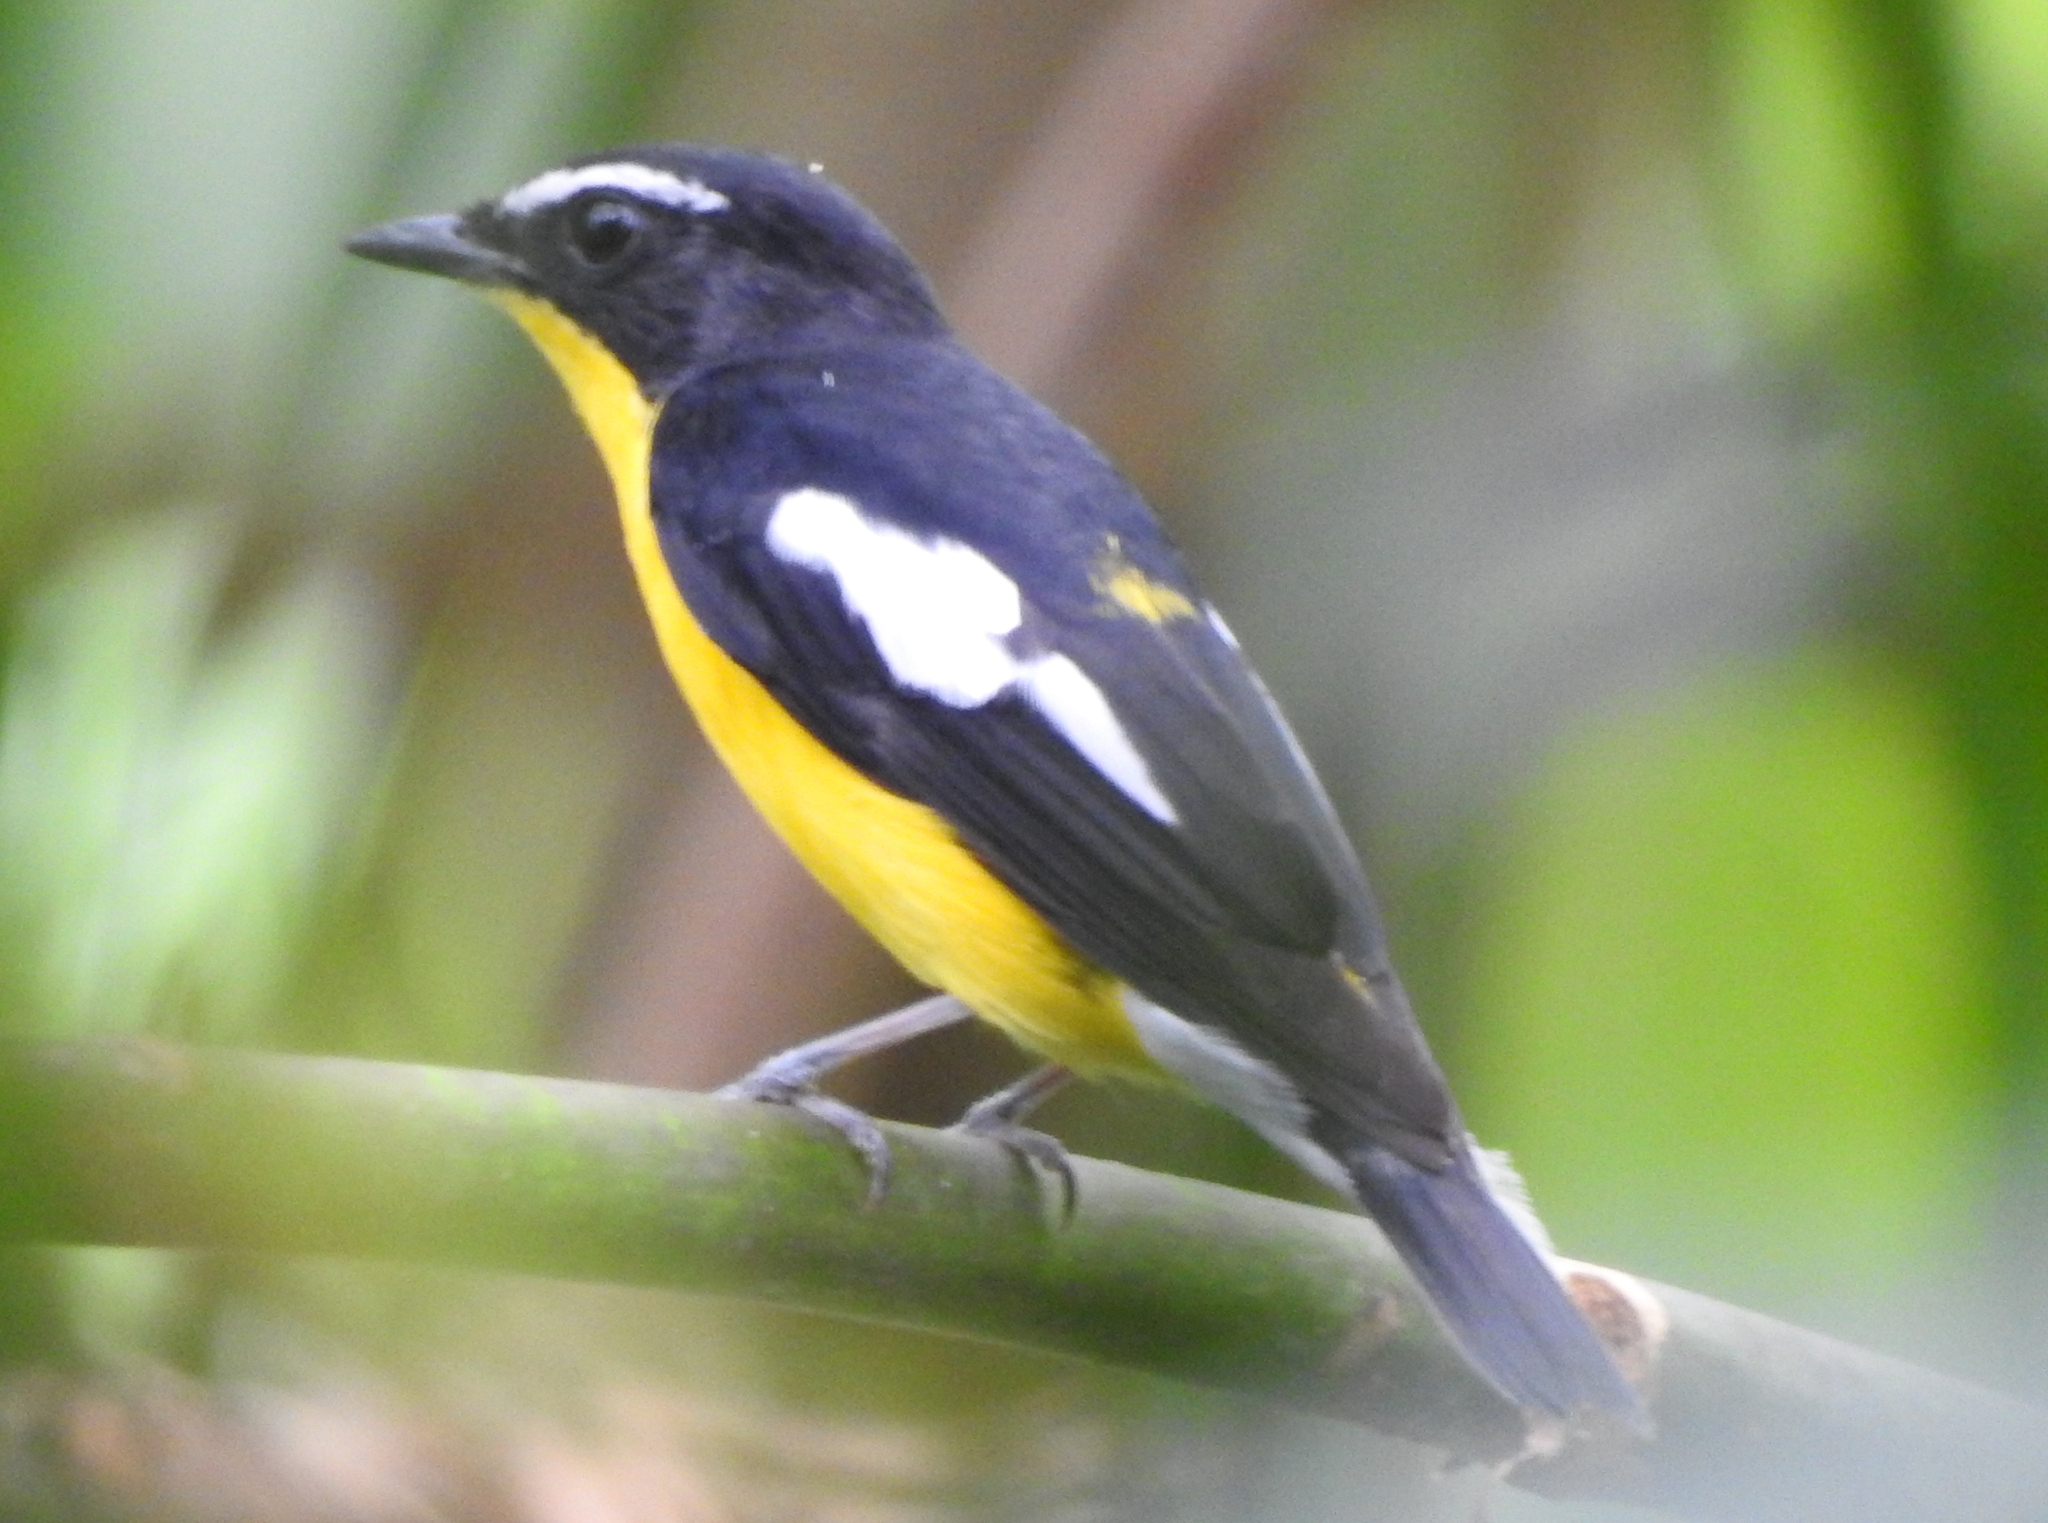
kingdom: Animalia
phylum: Chordata
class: Aves
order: Passeriformes
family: Muscicapidae
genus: Ficedula
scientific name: Ficedula zanthopygia
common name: Yellow-rumped flycatcher
